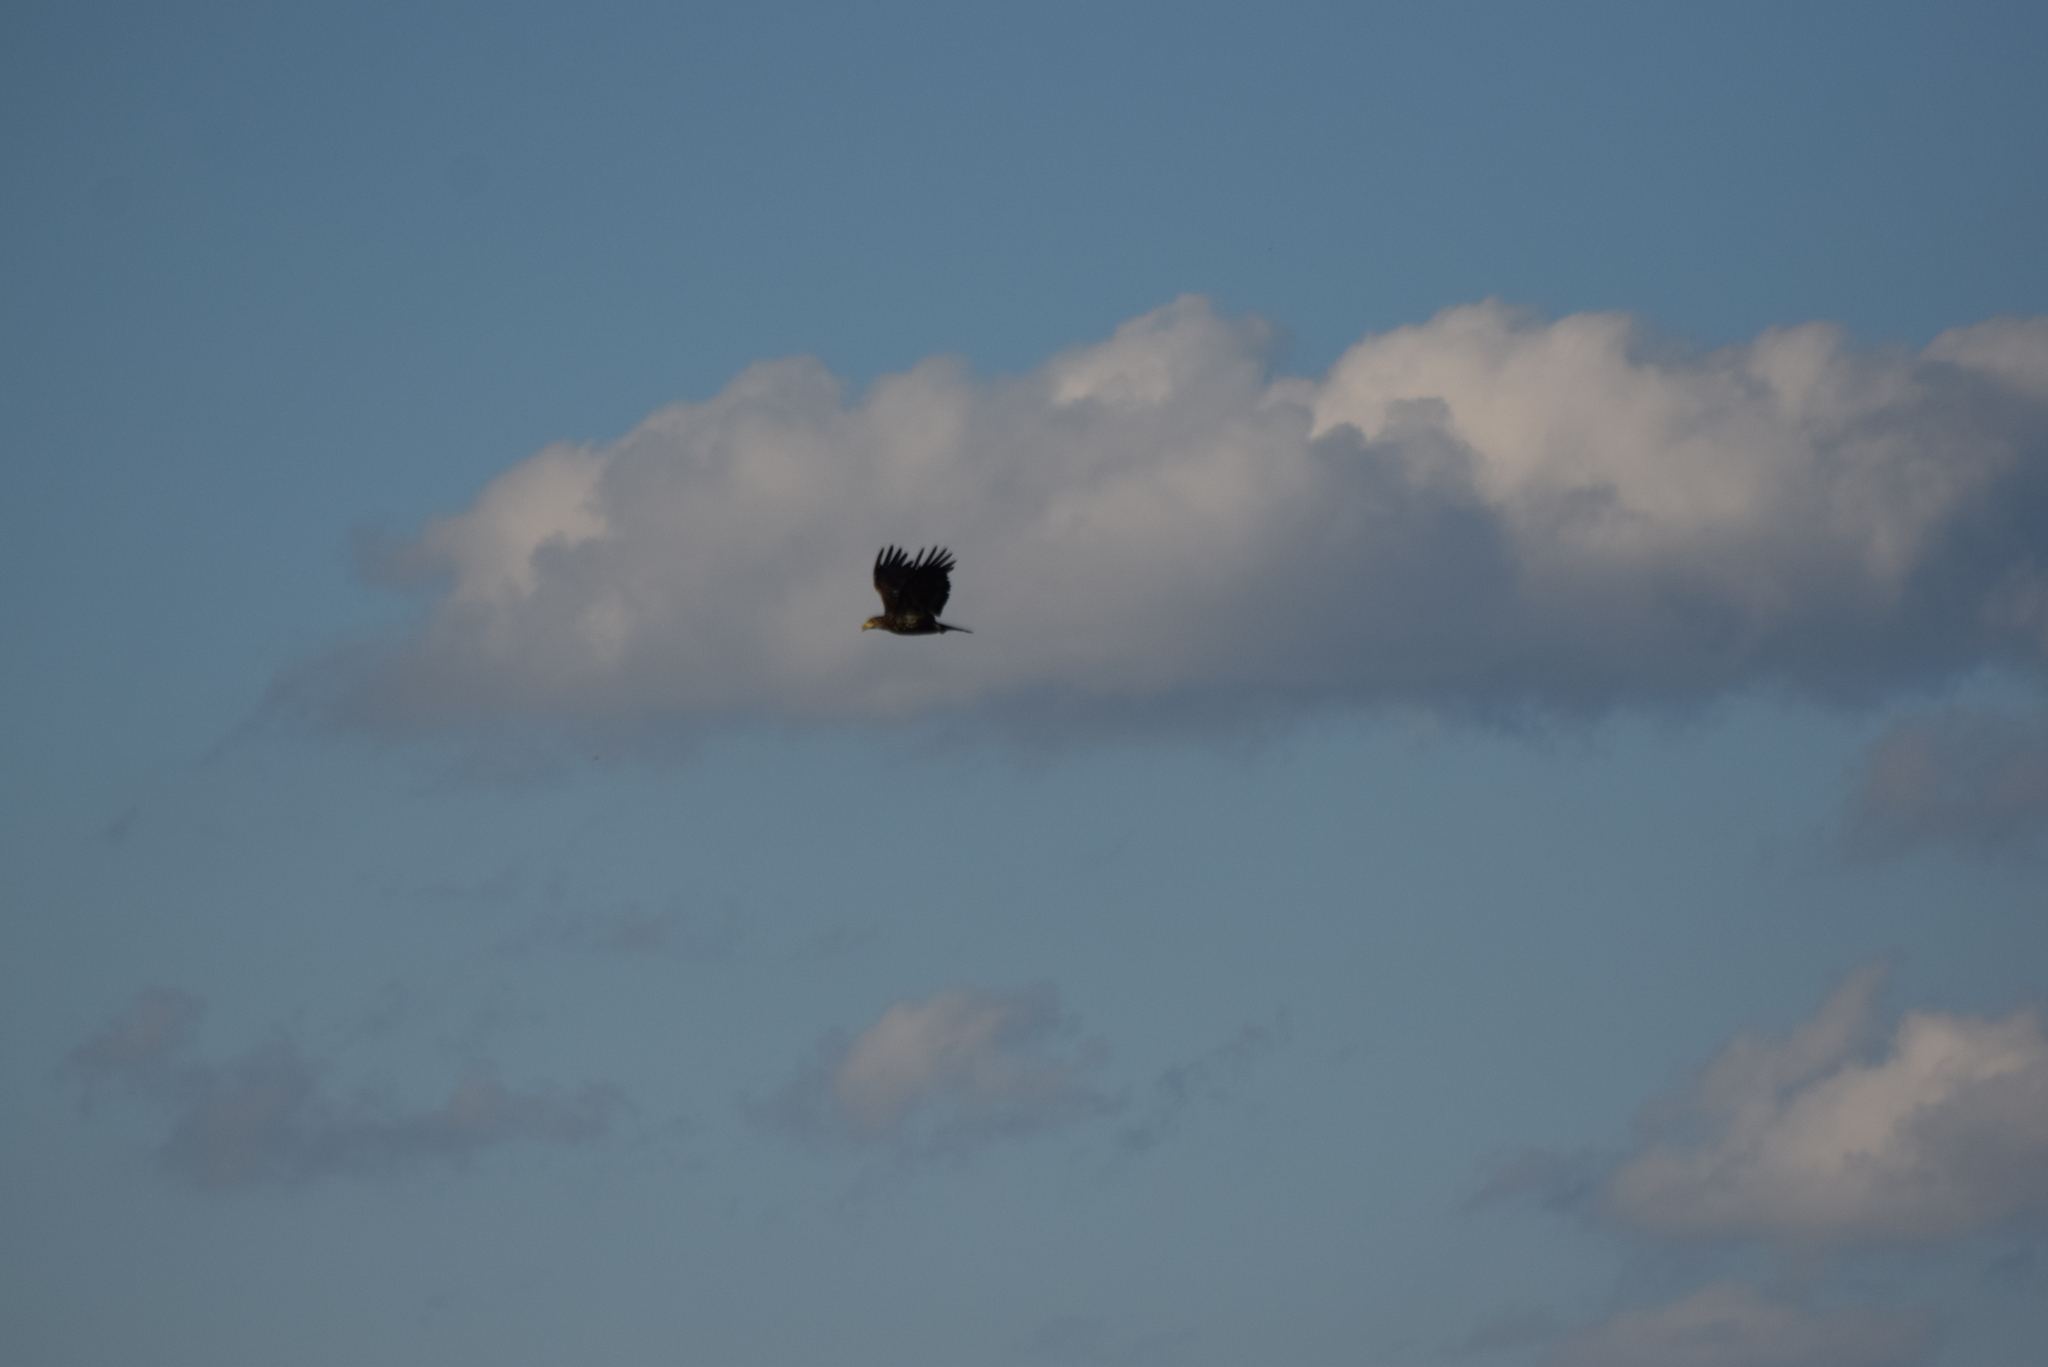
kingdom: Animalia
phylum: Chordata
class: Aves
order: Accipitriformes
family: Accipitridae
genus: Haliaeetus
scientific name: Haliaeetus leucocephalus
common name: Bald eagle
